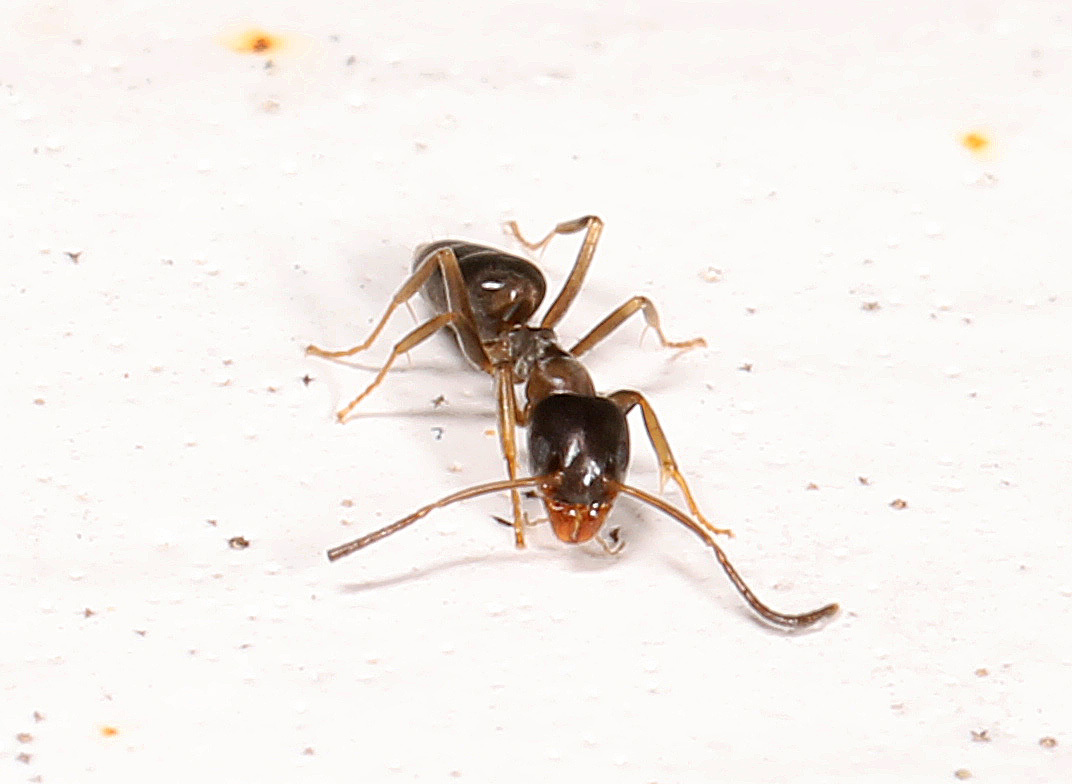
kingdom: Animalia
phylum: Arthropoda
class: Insecta
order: Hymenoptera
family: Formicidae
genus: Tapinoma
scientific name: Tapinoma sessile
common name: Odorous house ant
